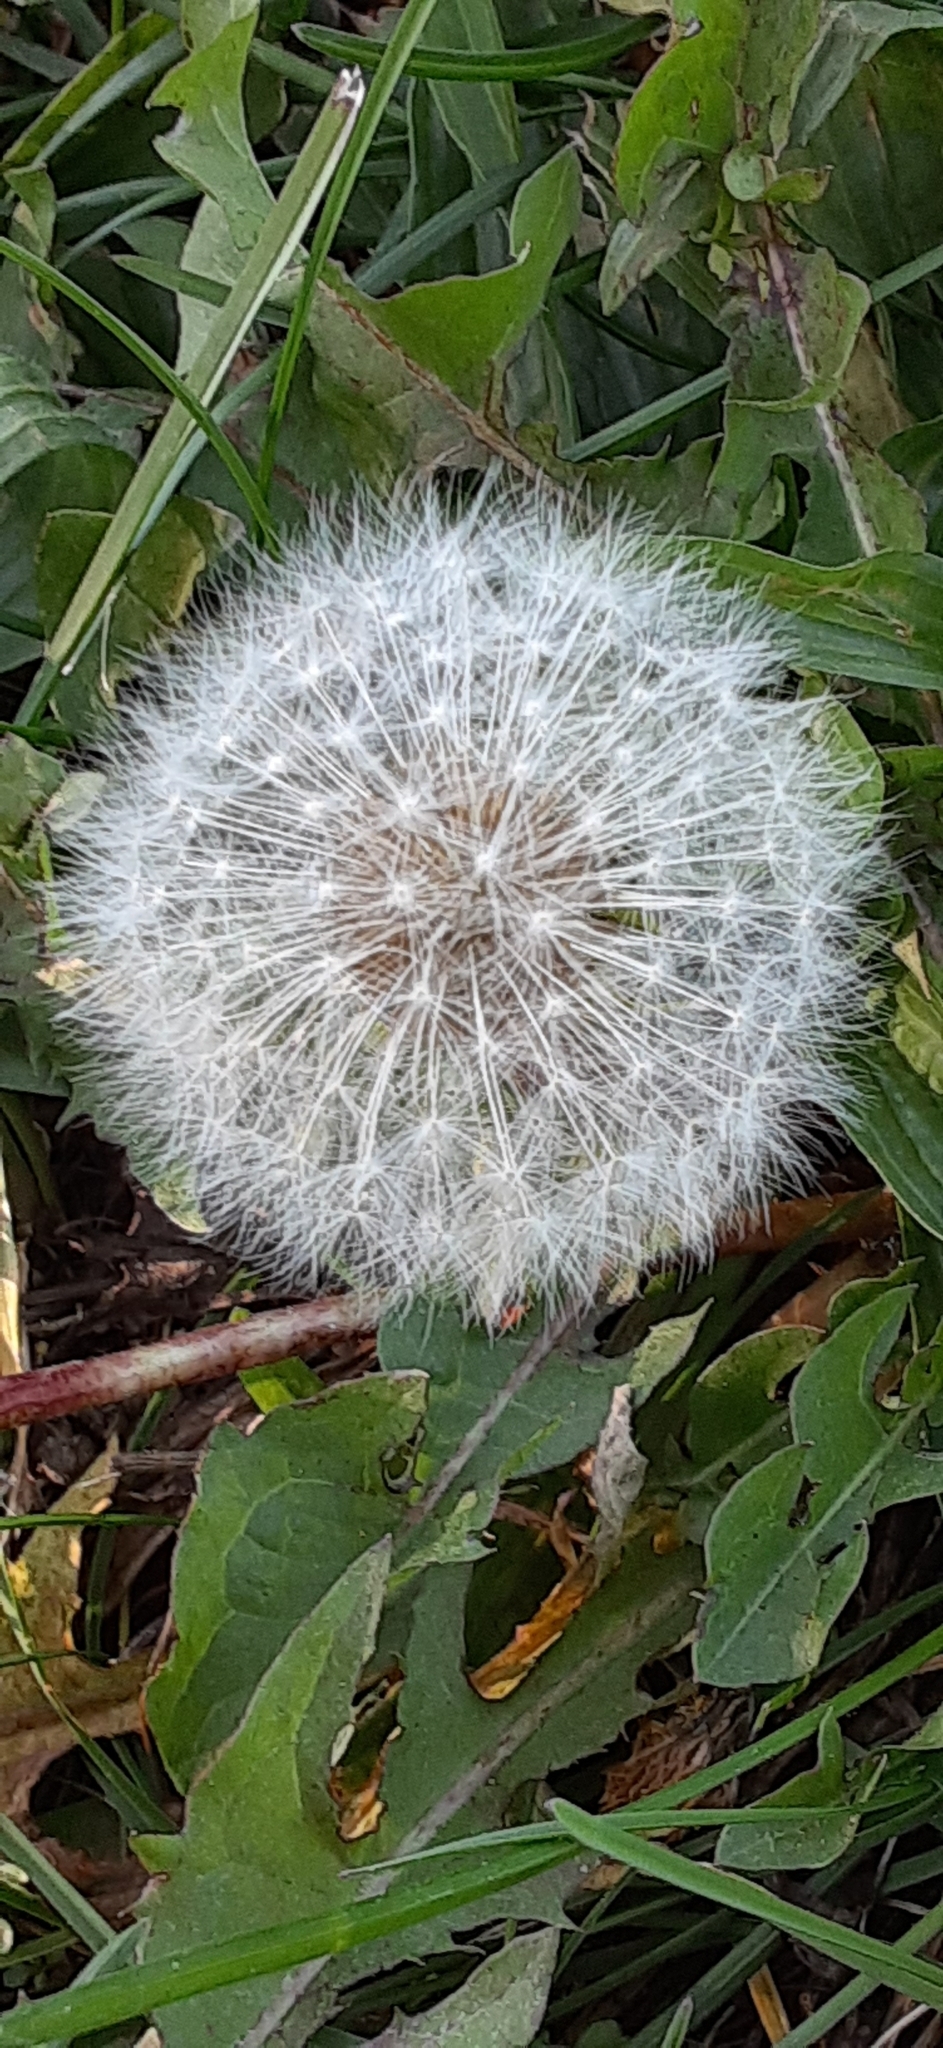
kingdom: Plantae
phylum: Tracheophyta
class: Magnoliopsida
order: Asterales
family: Asteraceae
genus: Taraxacum
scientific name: Taraxacum officinale
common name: Common dandelion
